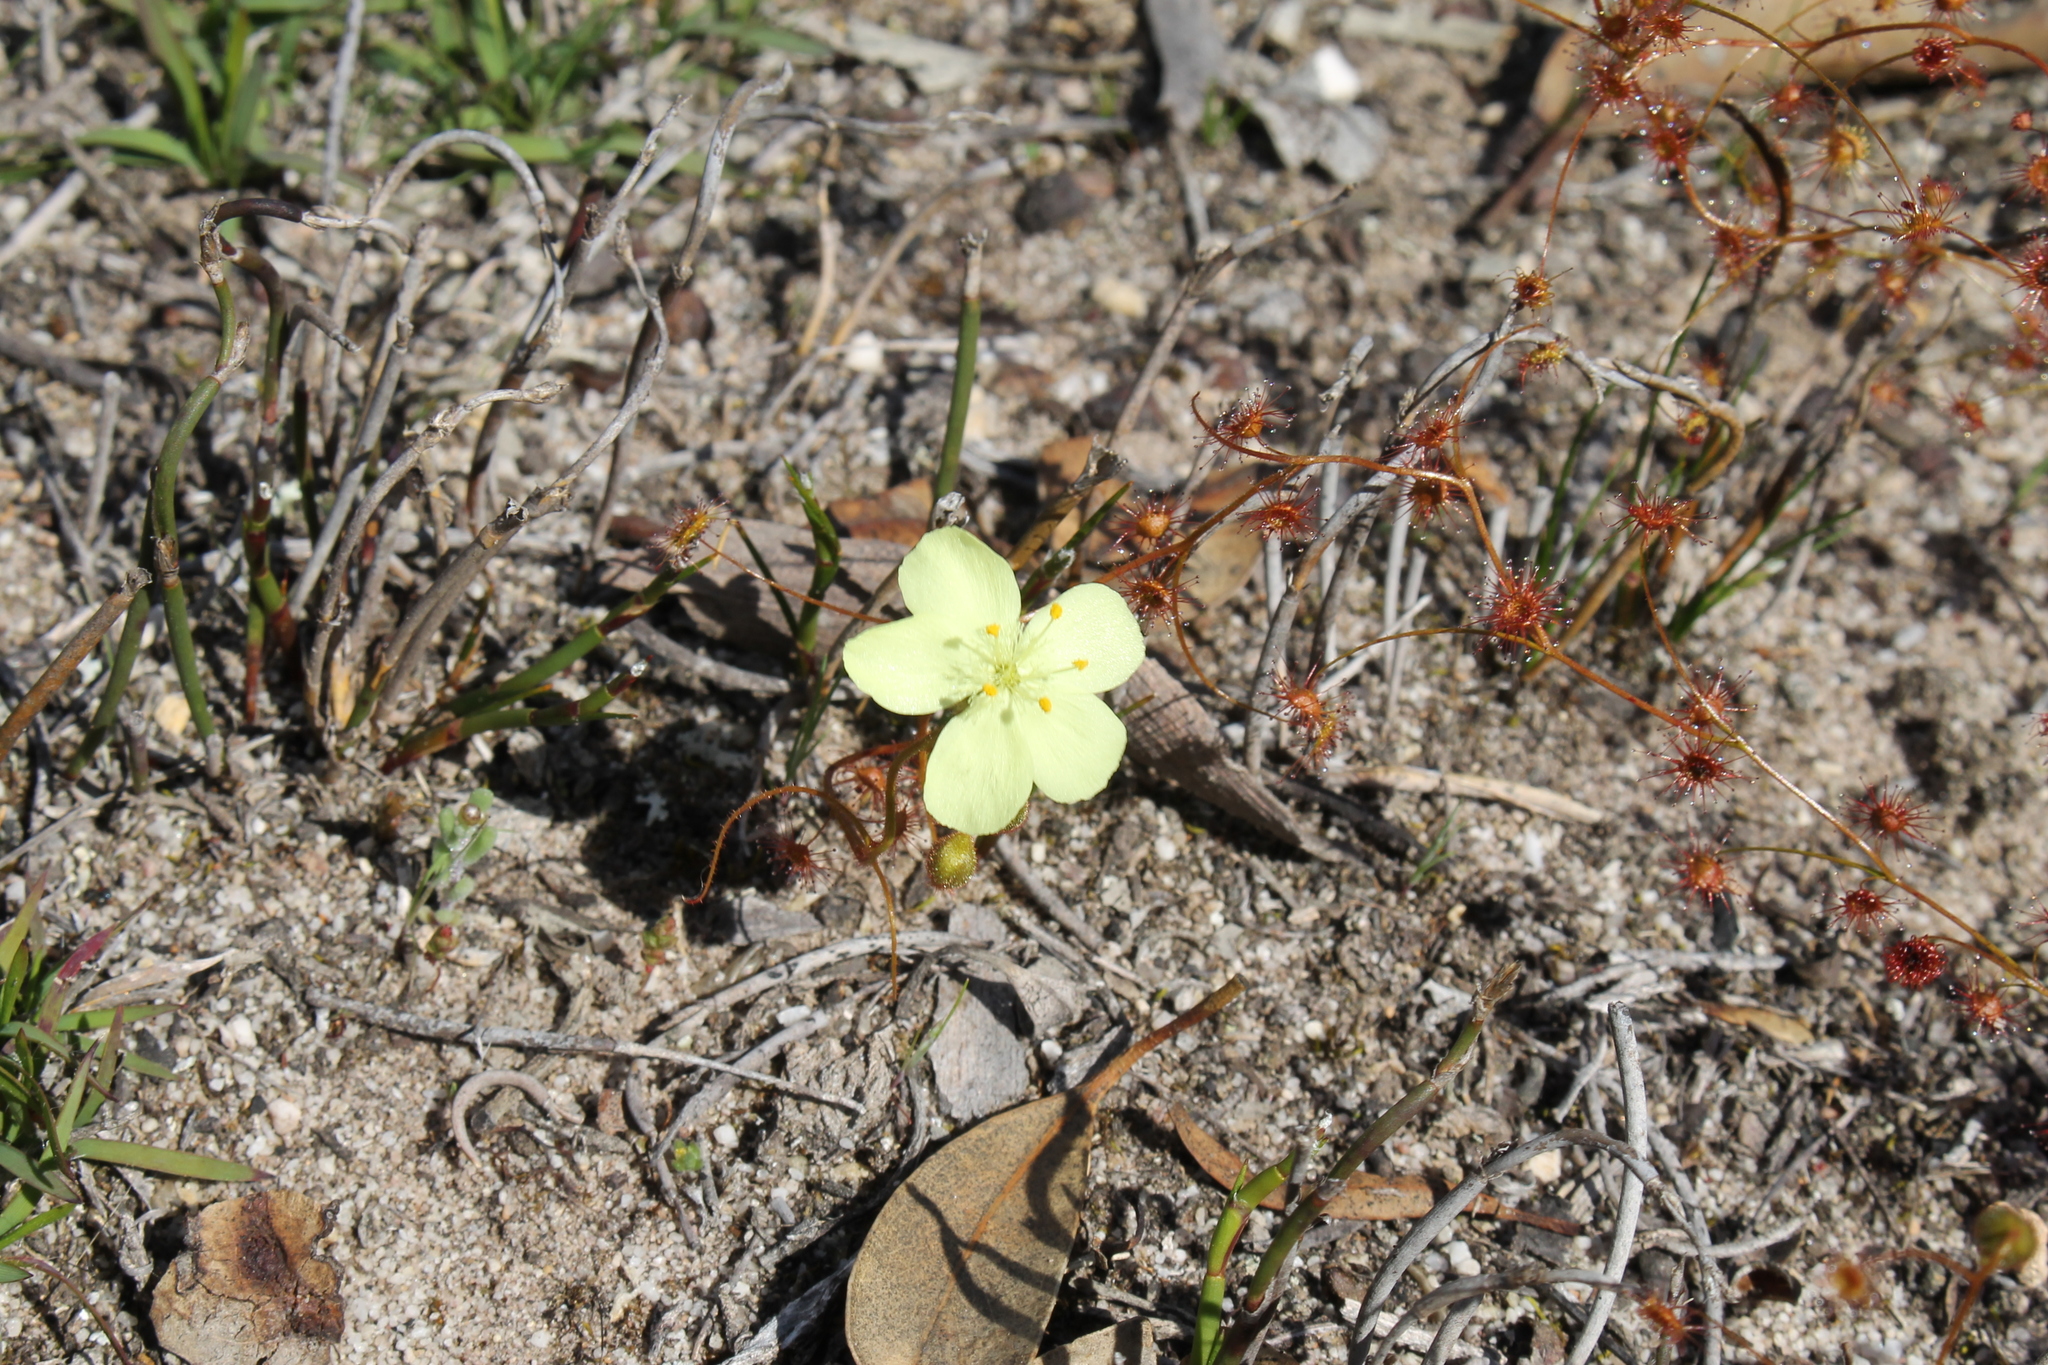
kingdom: Plantae
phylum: Tracheophyta
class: Magnoliopsida
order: Caryophyllales
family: Droseraceae
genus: Drosera
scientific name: Drosera subhirtella
